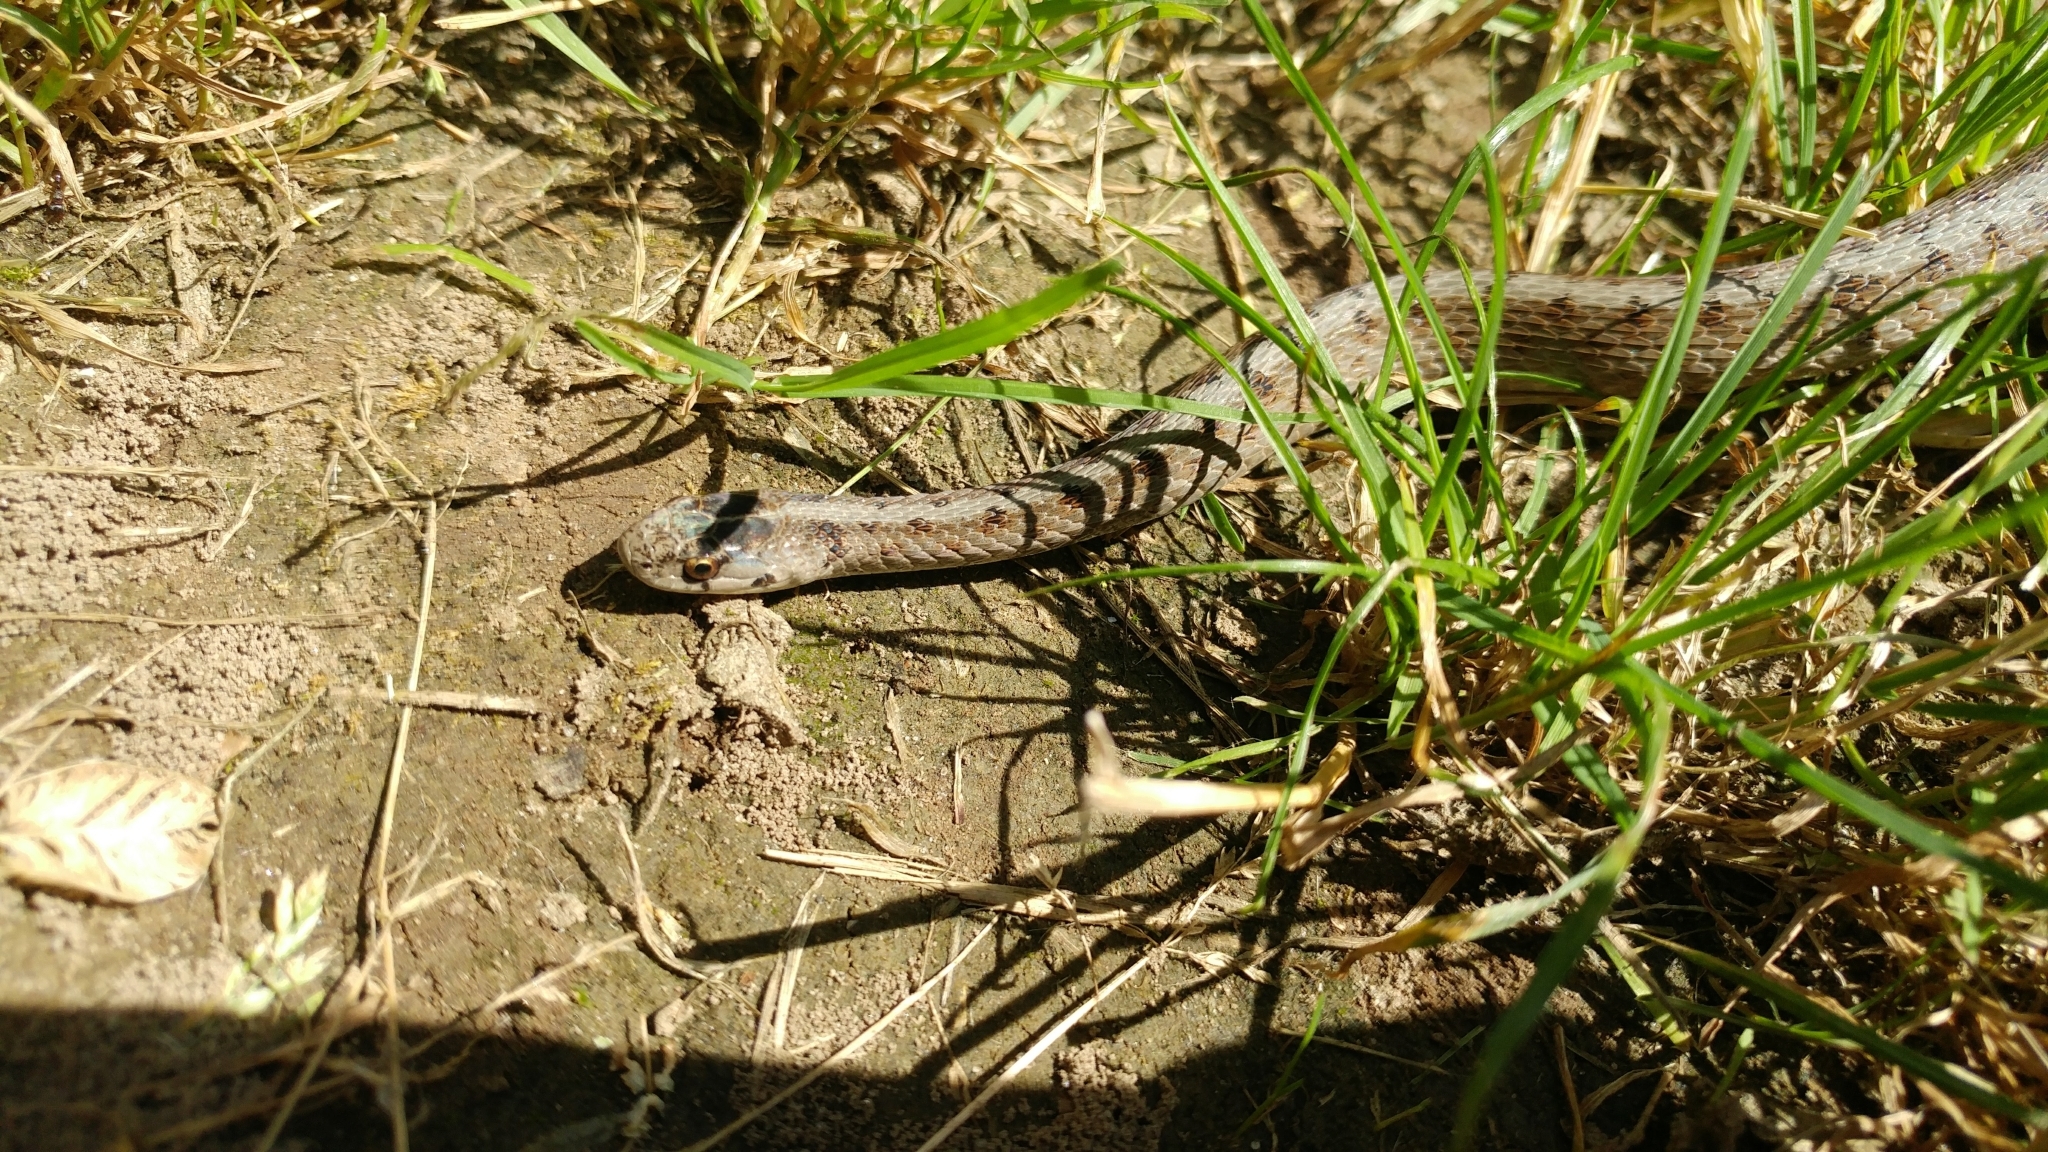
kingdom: Animalia
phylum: Chordata
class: Squamata
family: Colubridae
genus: Storeria
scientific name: Storeria dekayi
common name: (dekay’s) brown snake
